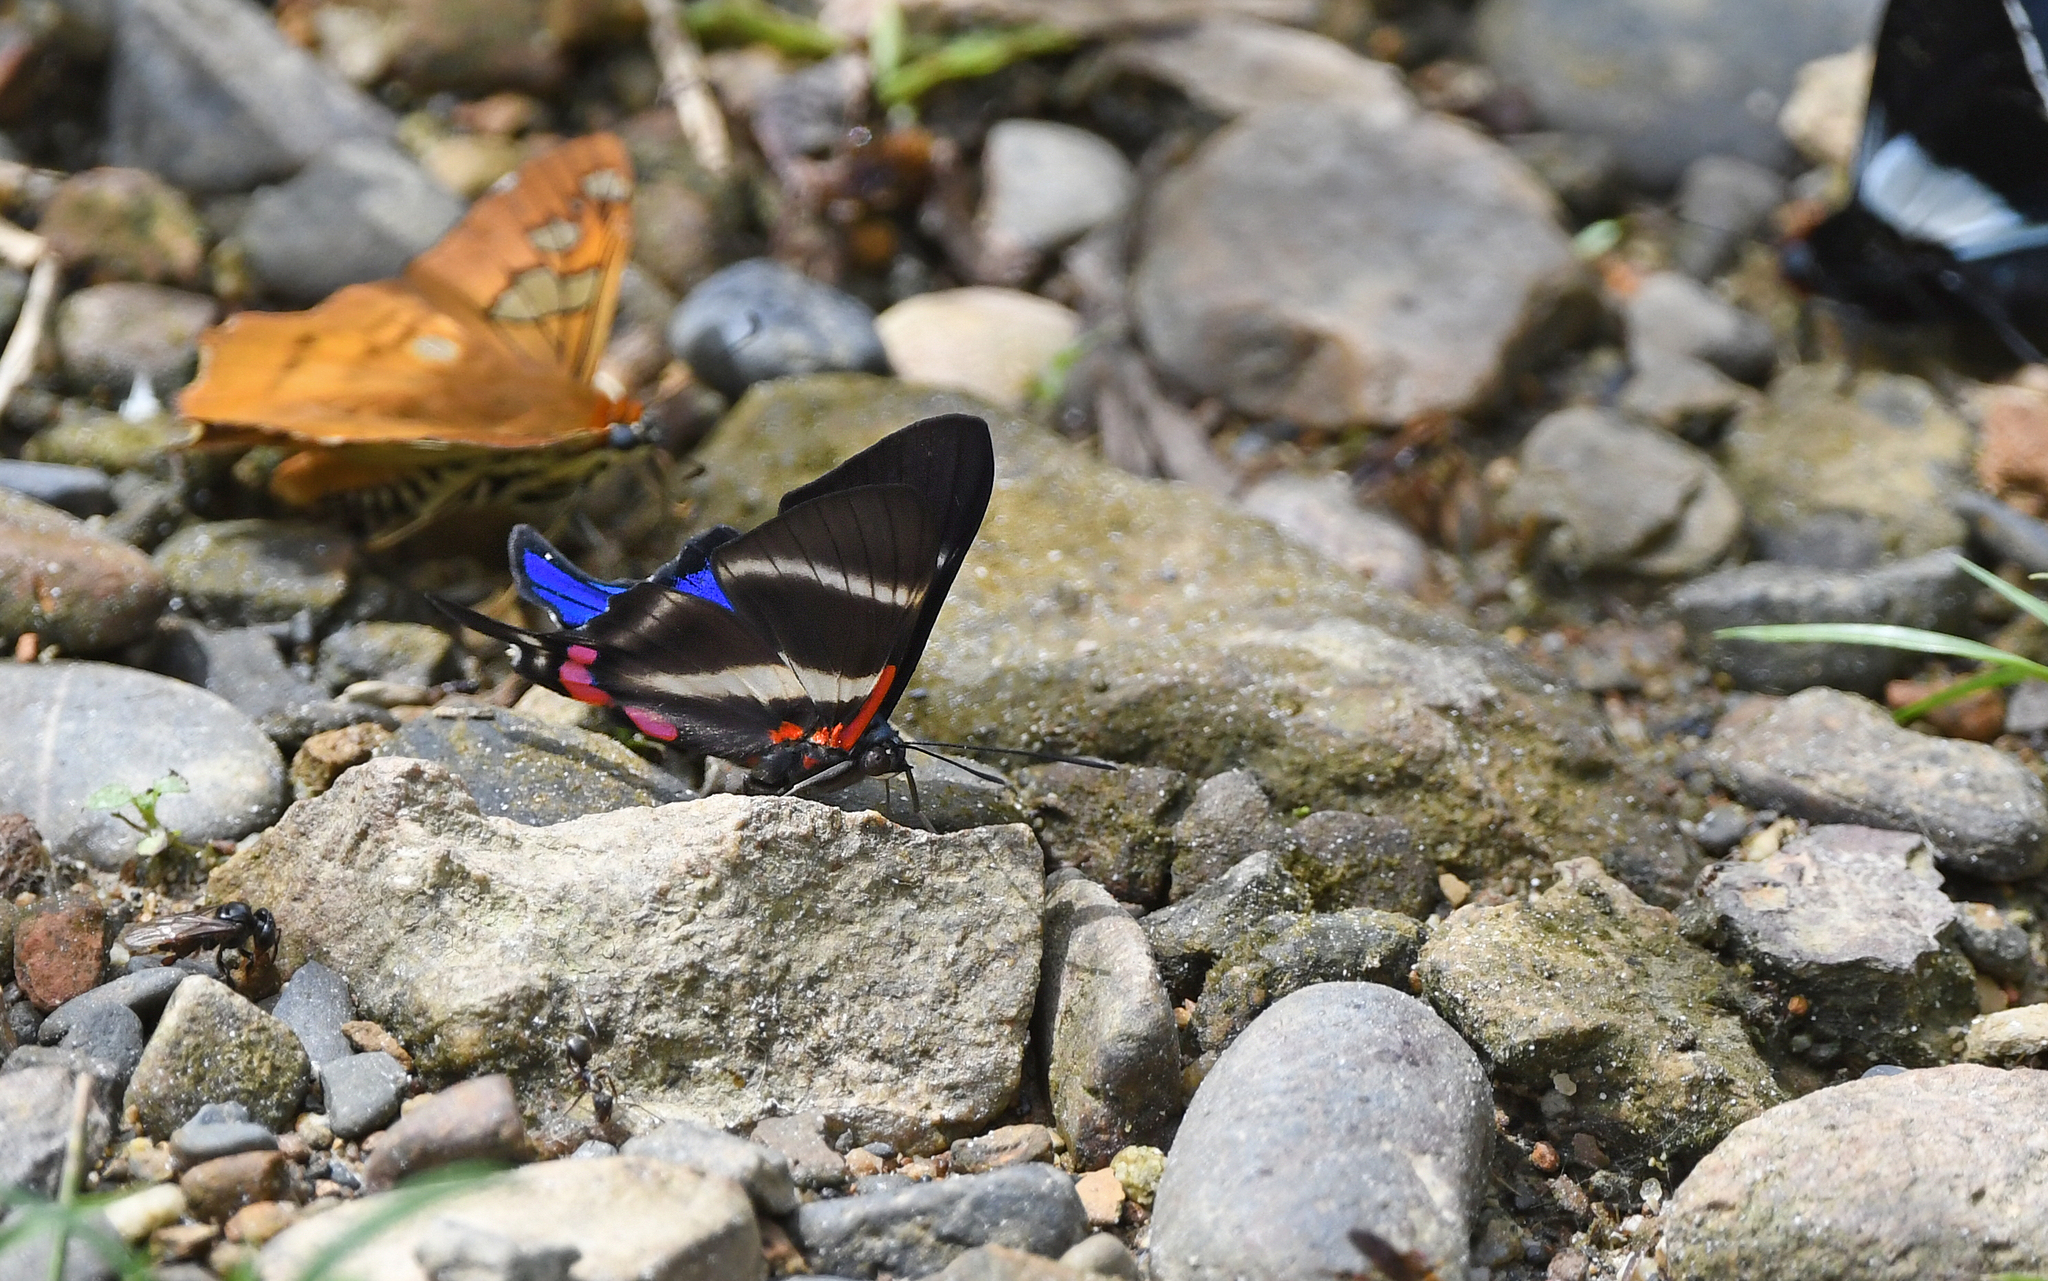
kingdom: Animalia
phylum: Arthropoda
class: Insecta
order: Lepidoptera
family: Riodinidae
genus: Rhetus
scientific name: Rhetus periander
